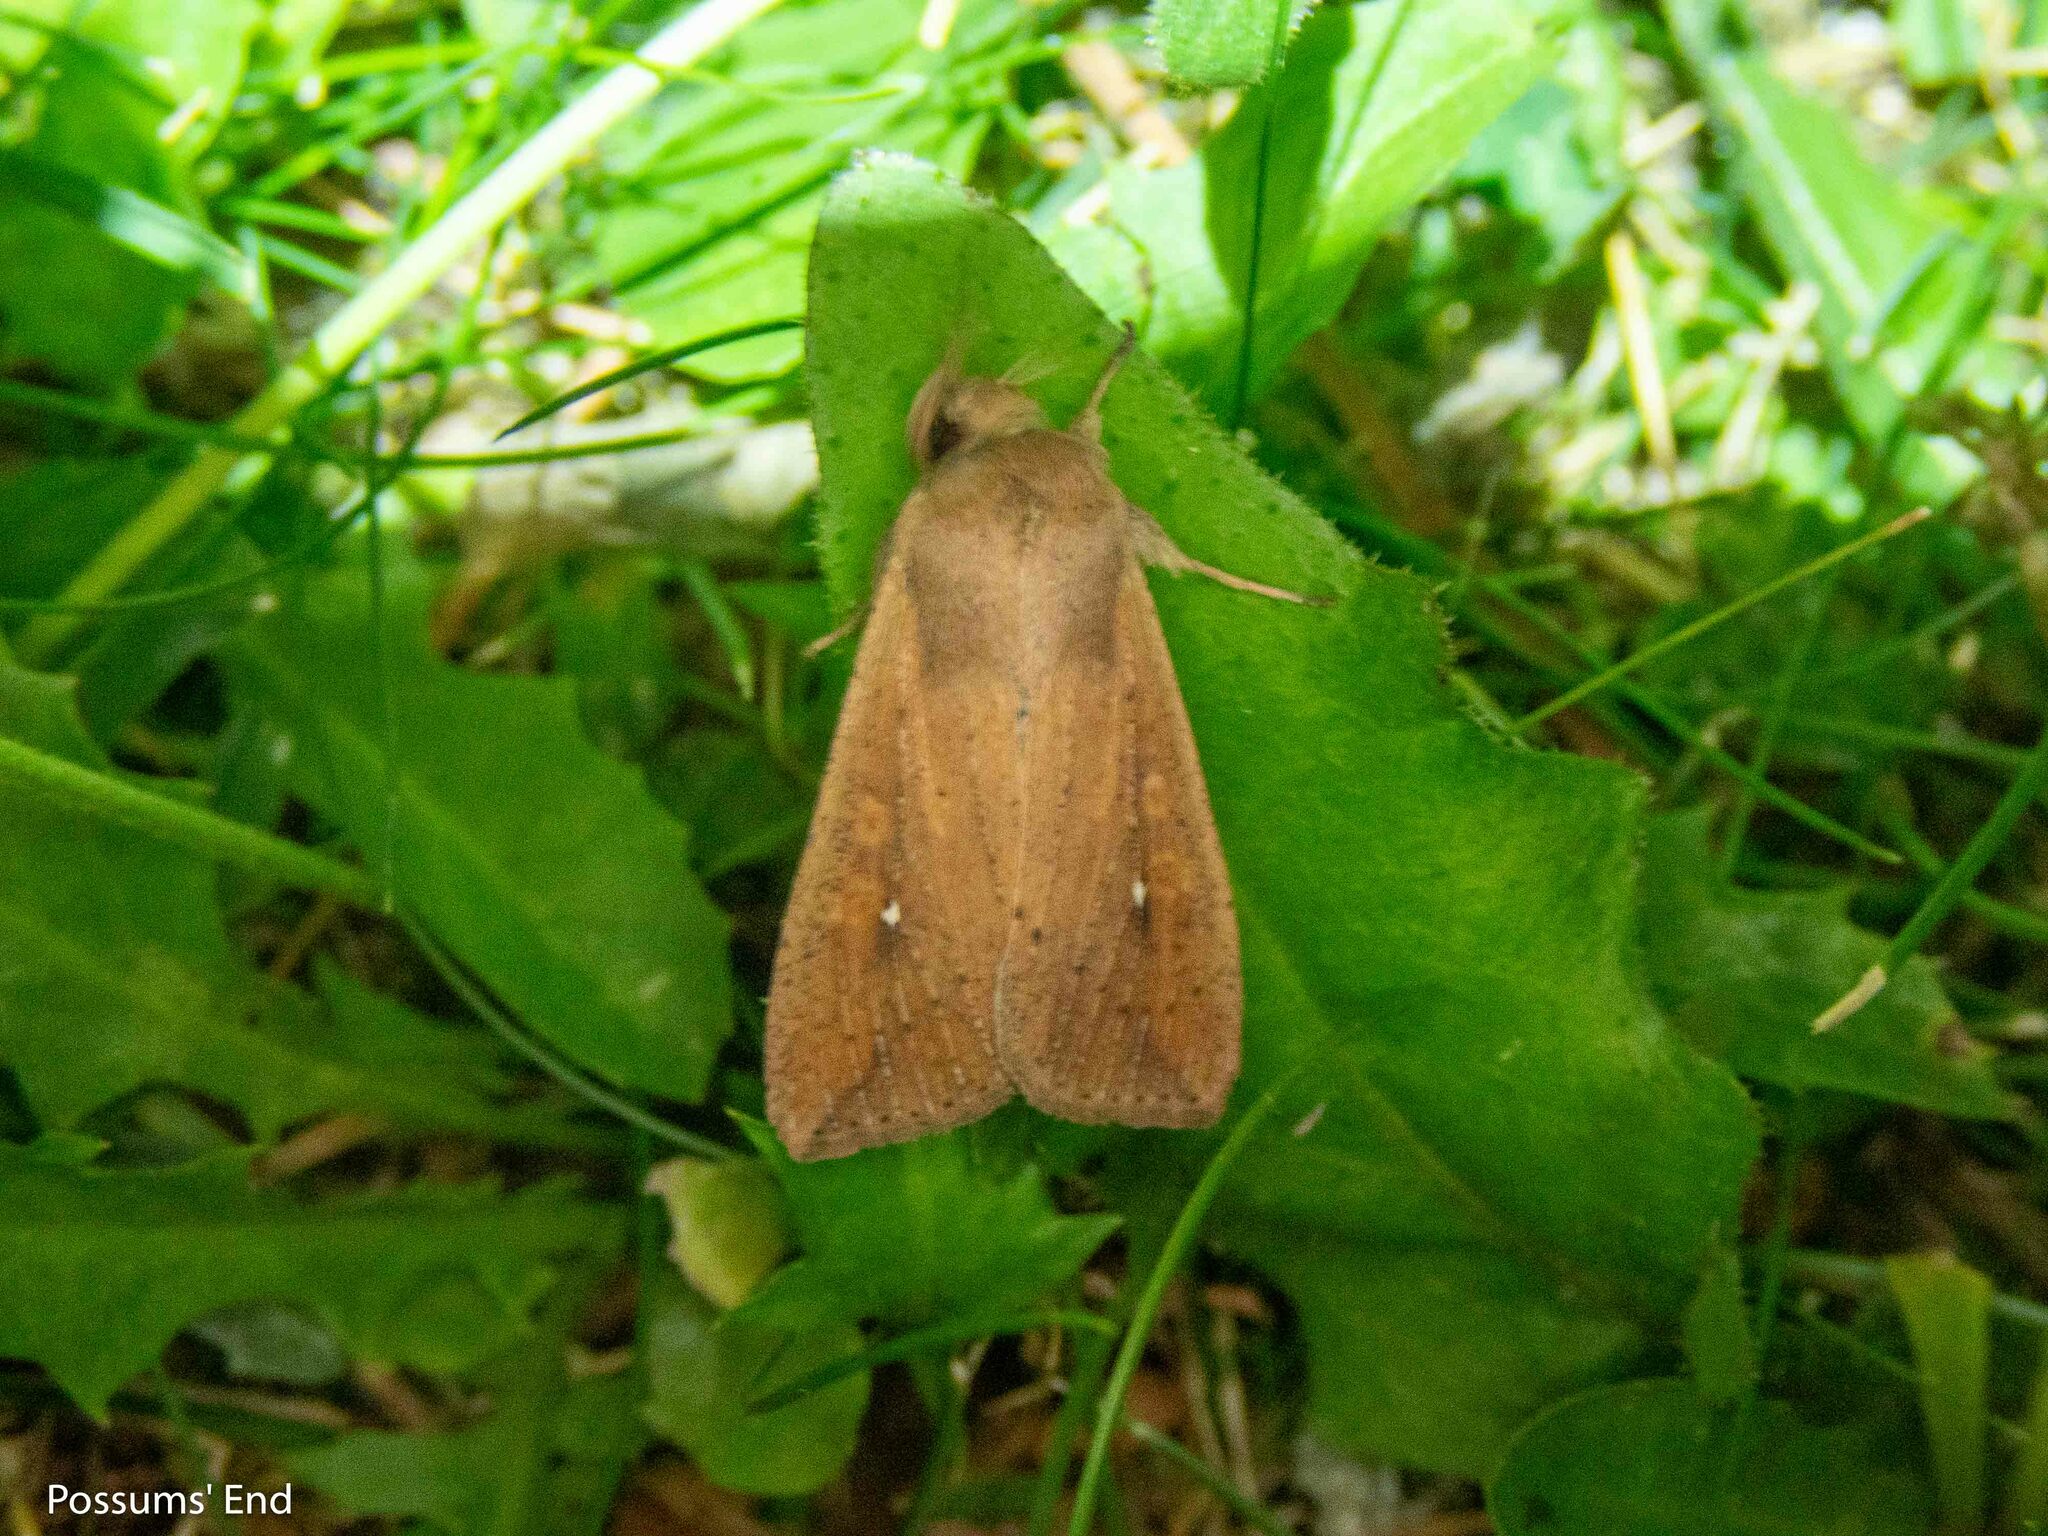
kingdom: Animalia
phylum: Arthropoda
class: Insecta
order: Lepidoptera
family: Noctuidae
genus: Mythimna
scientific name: Mythimna unipuncta
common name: White-speck
